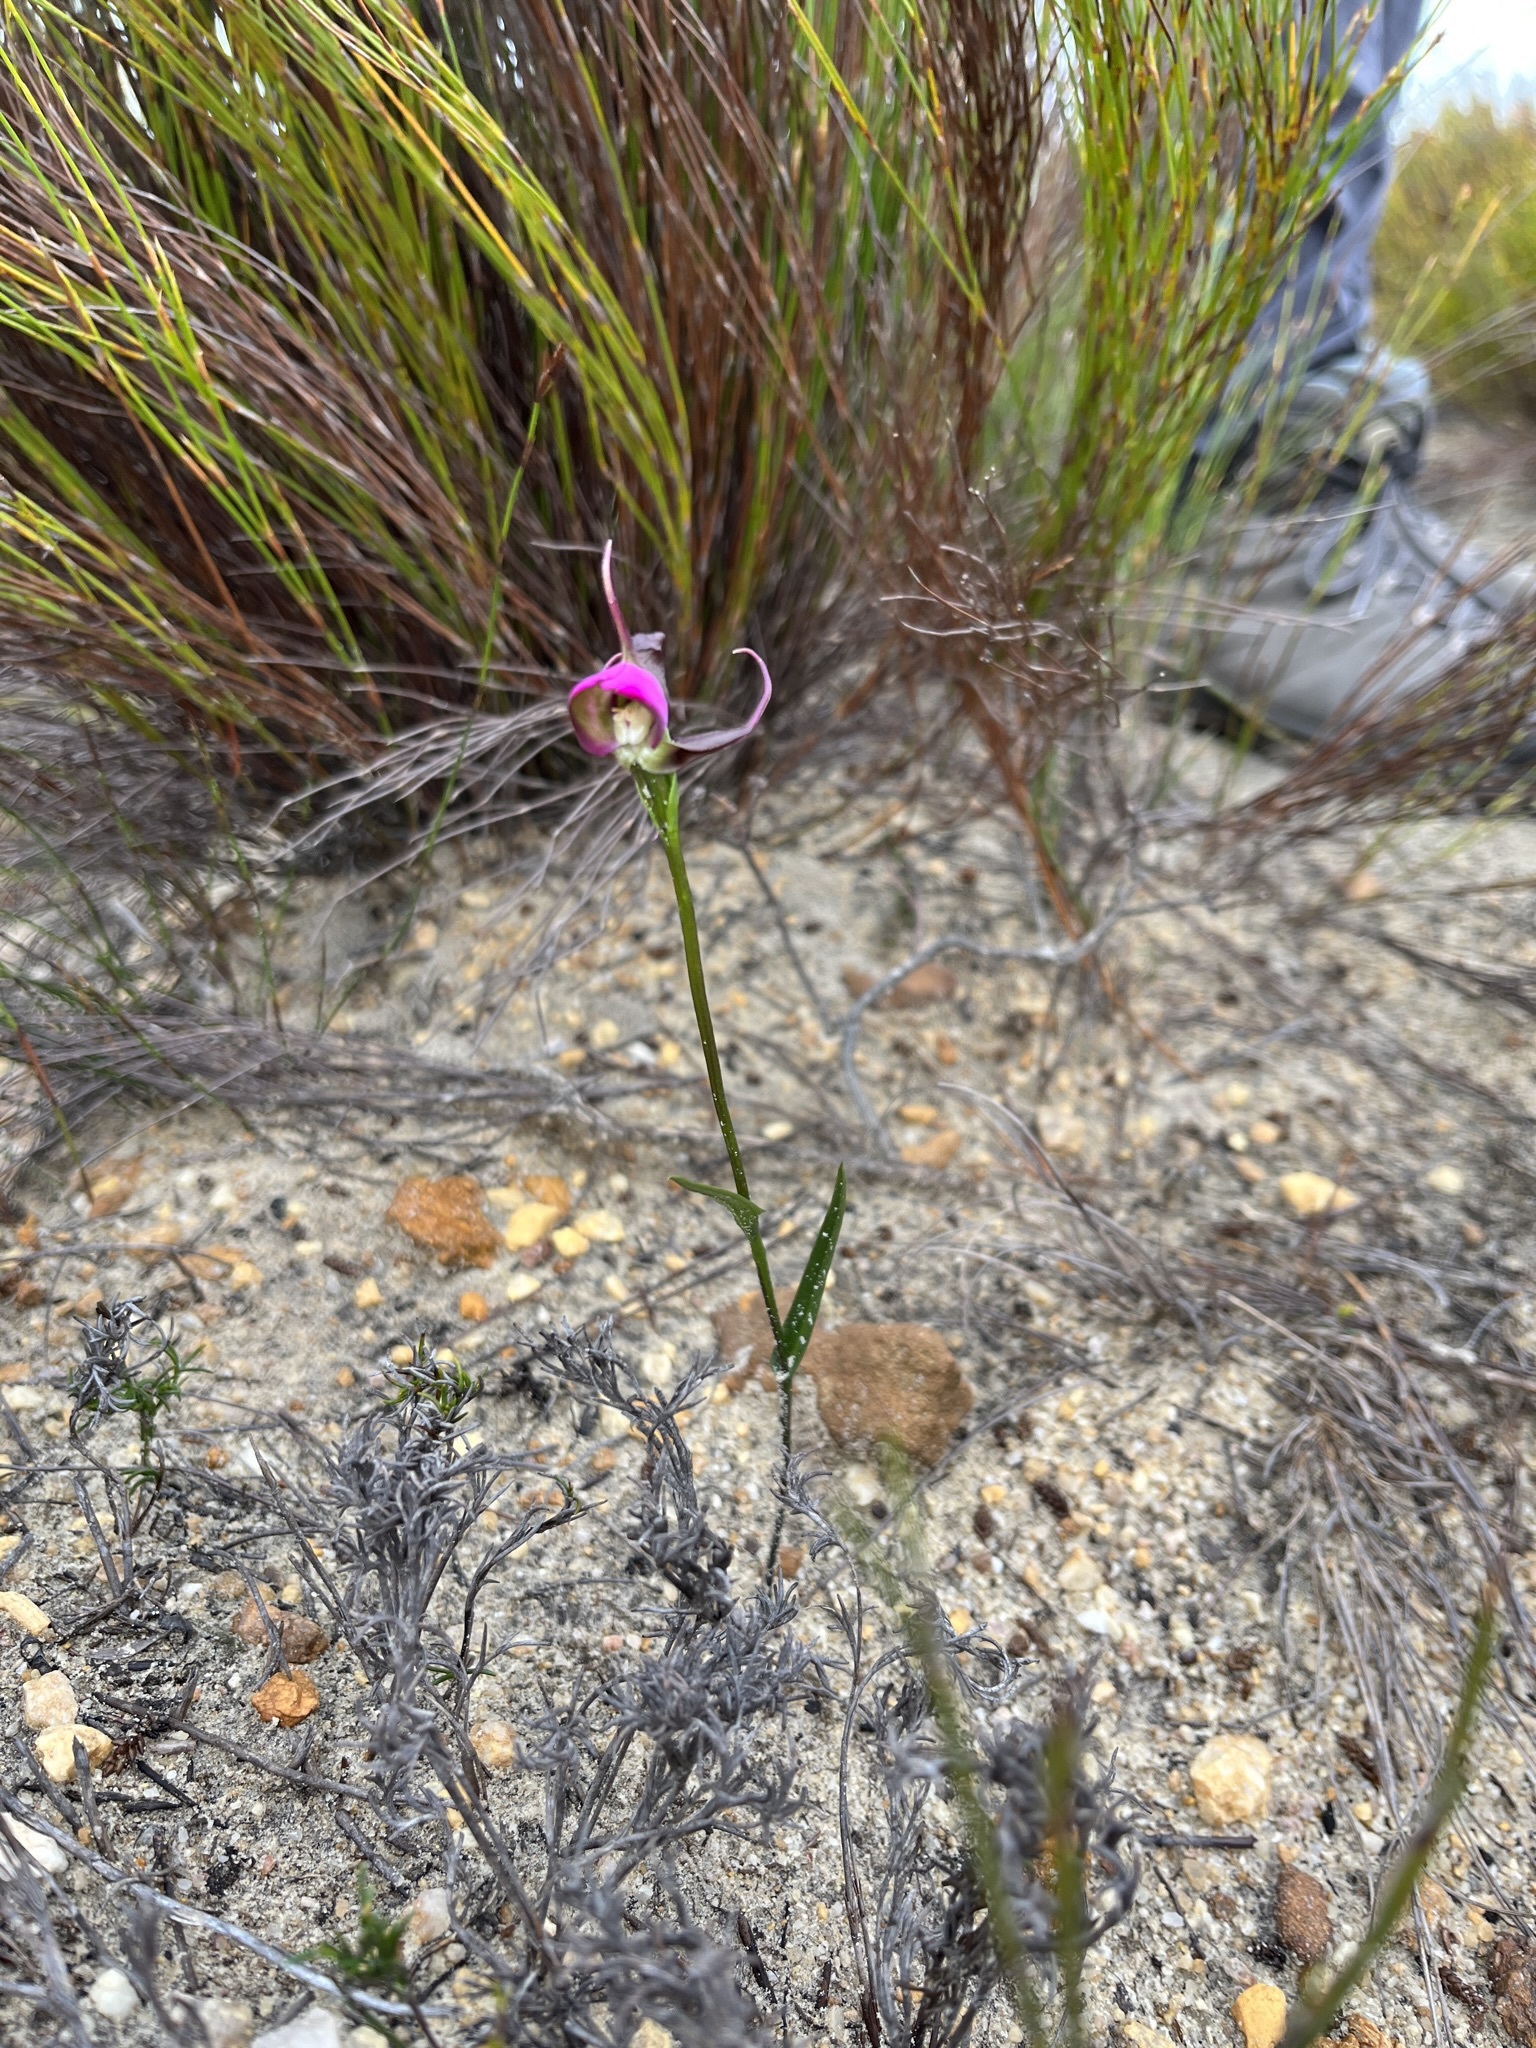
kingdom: Plantae
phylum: Tracheophyta
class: Liliopsida
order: Asparagales
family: Orchidaceae
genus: Disperis
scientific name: Disperis capensis
